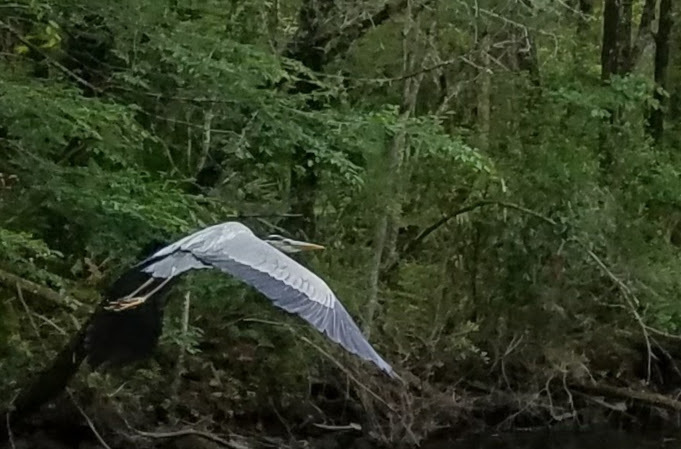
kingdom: Animalia
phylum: Chordata
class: Aves
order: Pelecaniformes
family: Ardeidae
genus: Ardea
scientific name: Ardea herodias
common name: Great blue heron
